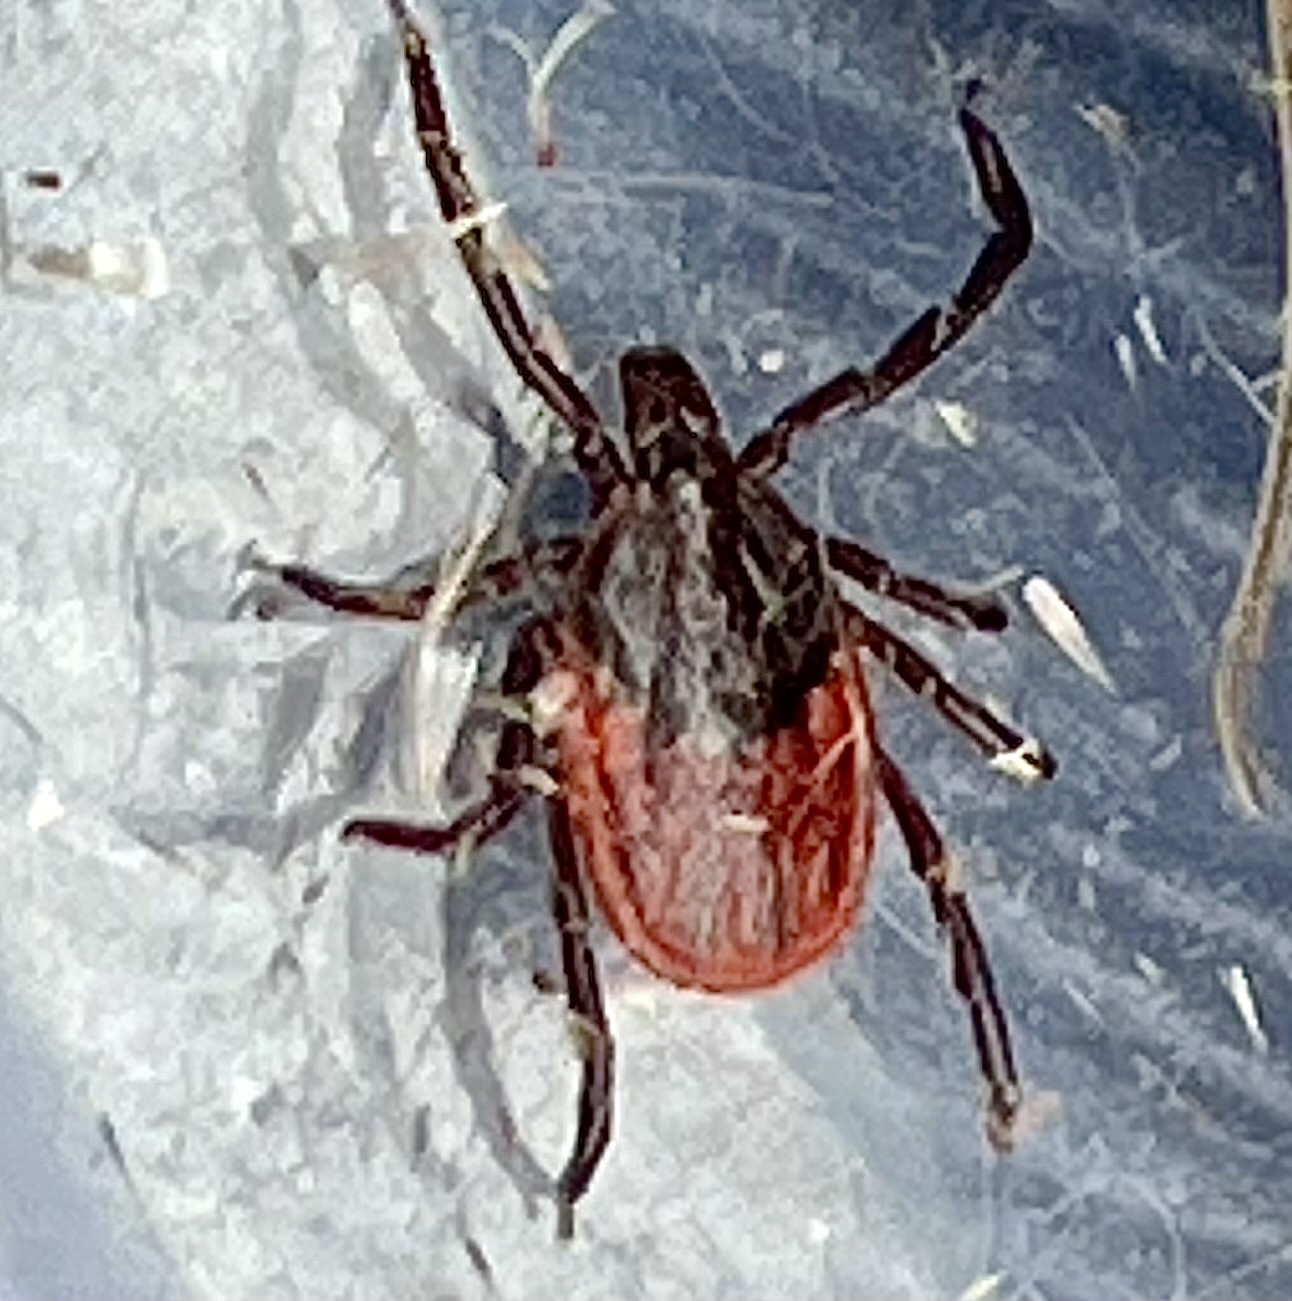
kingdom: Animalia
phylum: Arthropoda
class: Arachnida
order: Ixodida
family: Ixodidae
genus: Ixodes
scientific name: Ixodes pacificus
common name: California black-legged tick
